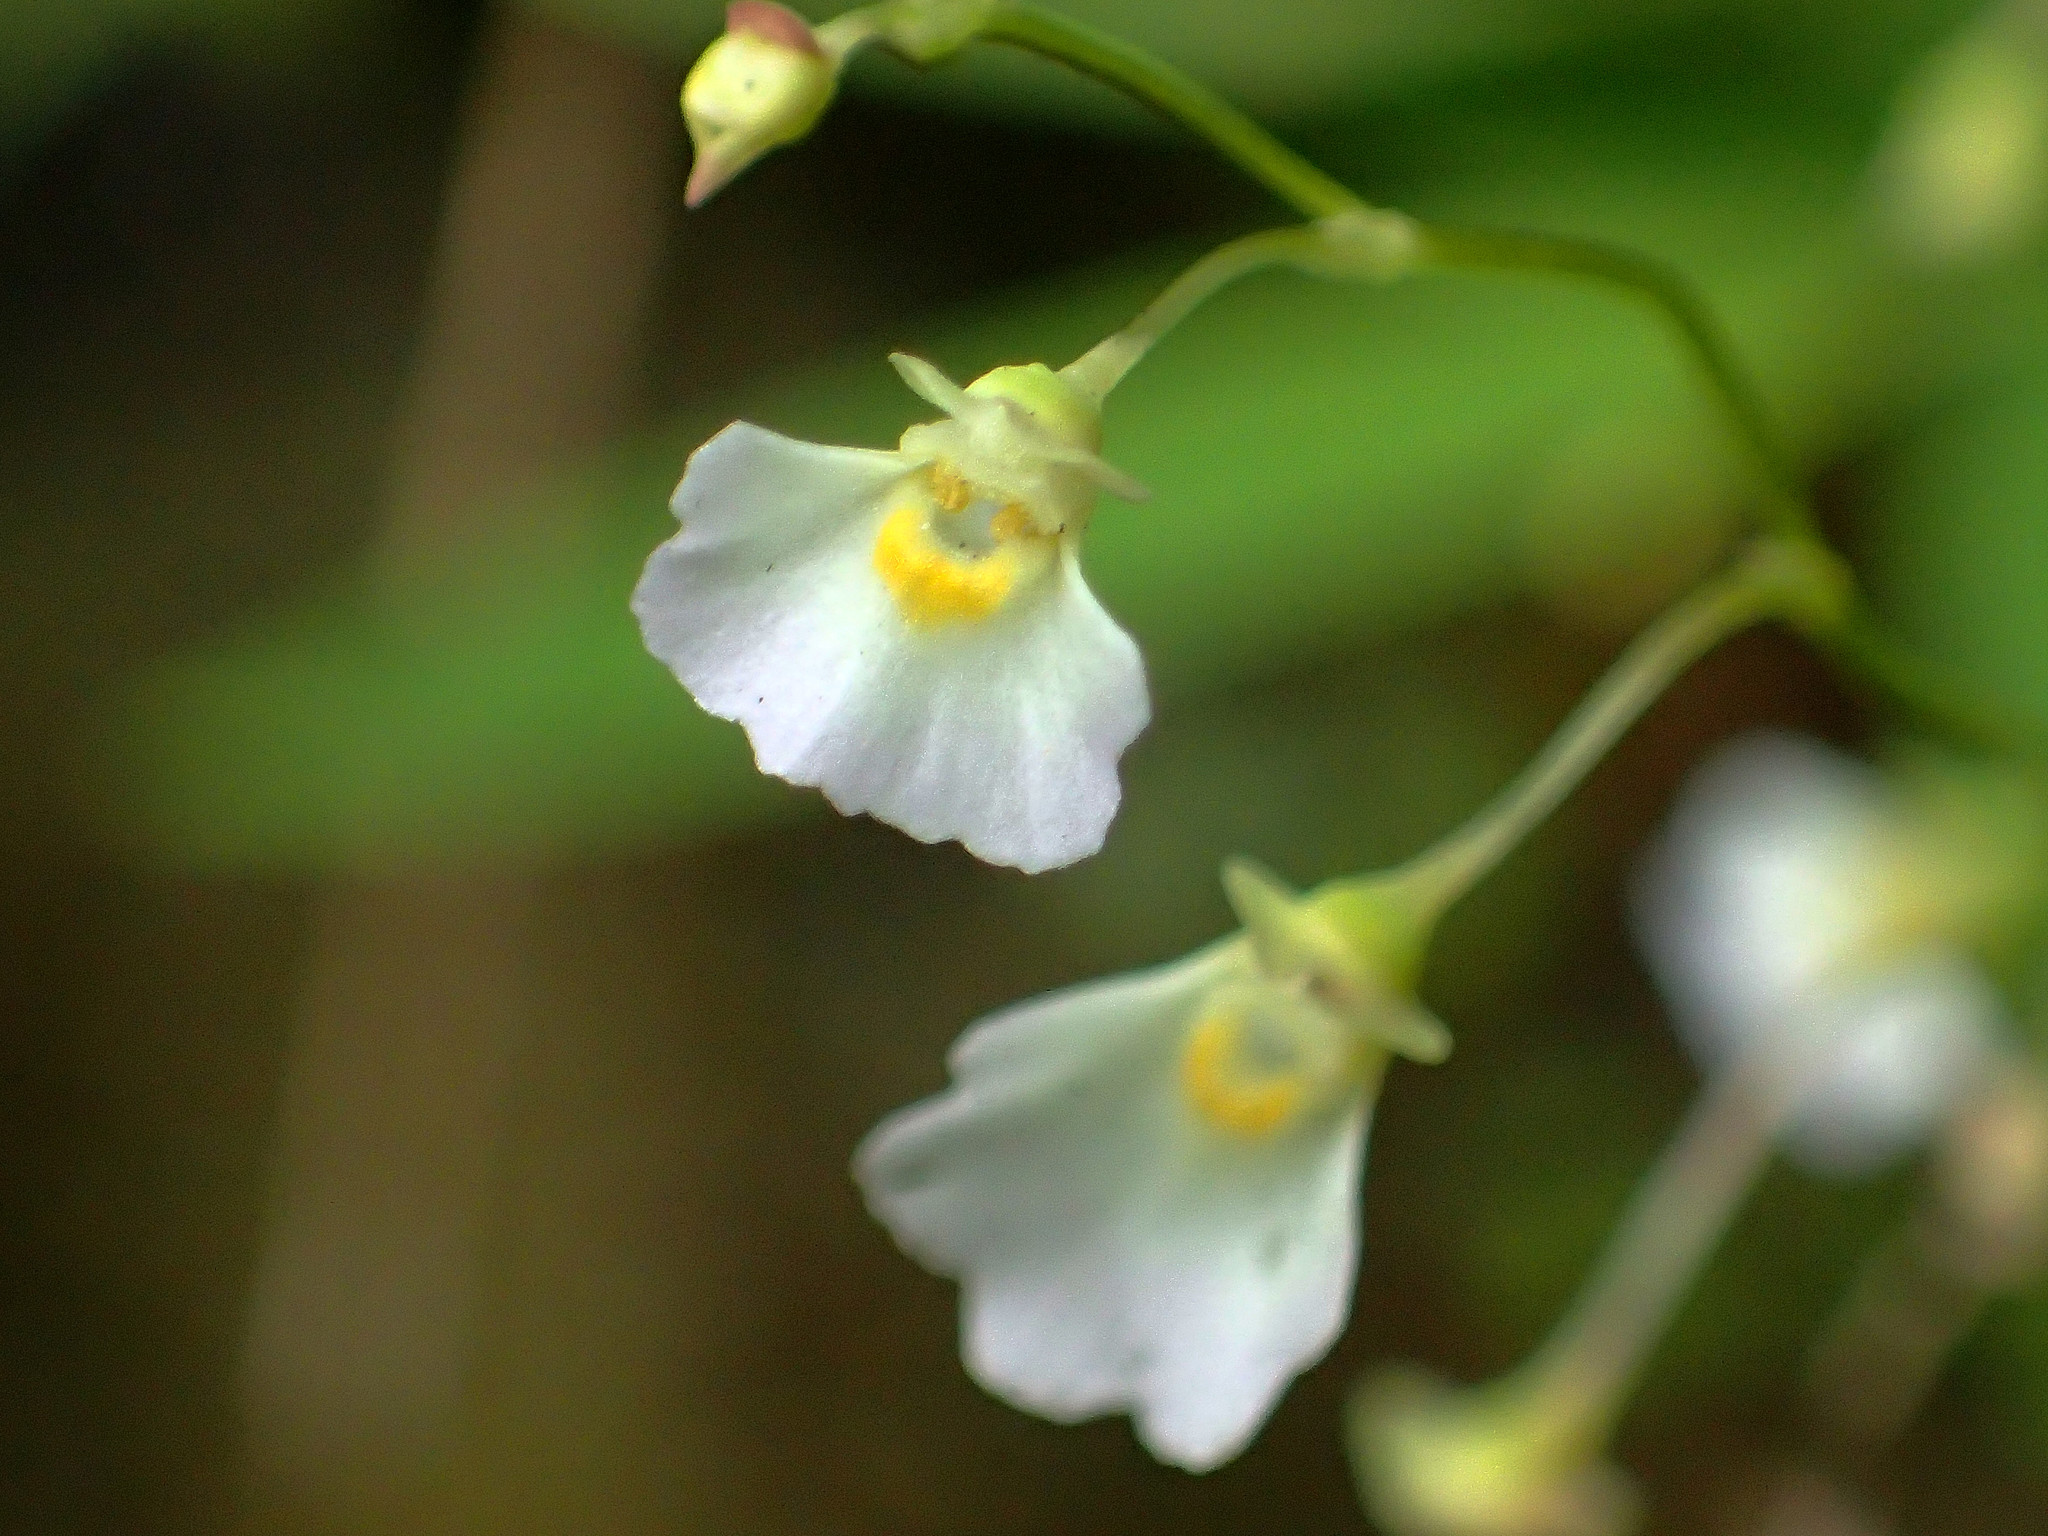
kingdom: Plantae
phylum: Tracheophyta
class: Magnoliopsida
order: Lamiales
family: Lentibulariaceae
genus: Utricularia
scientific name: Utricularia striatula
